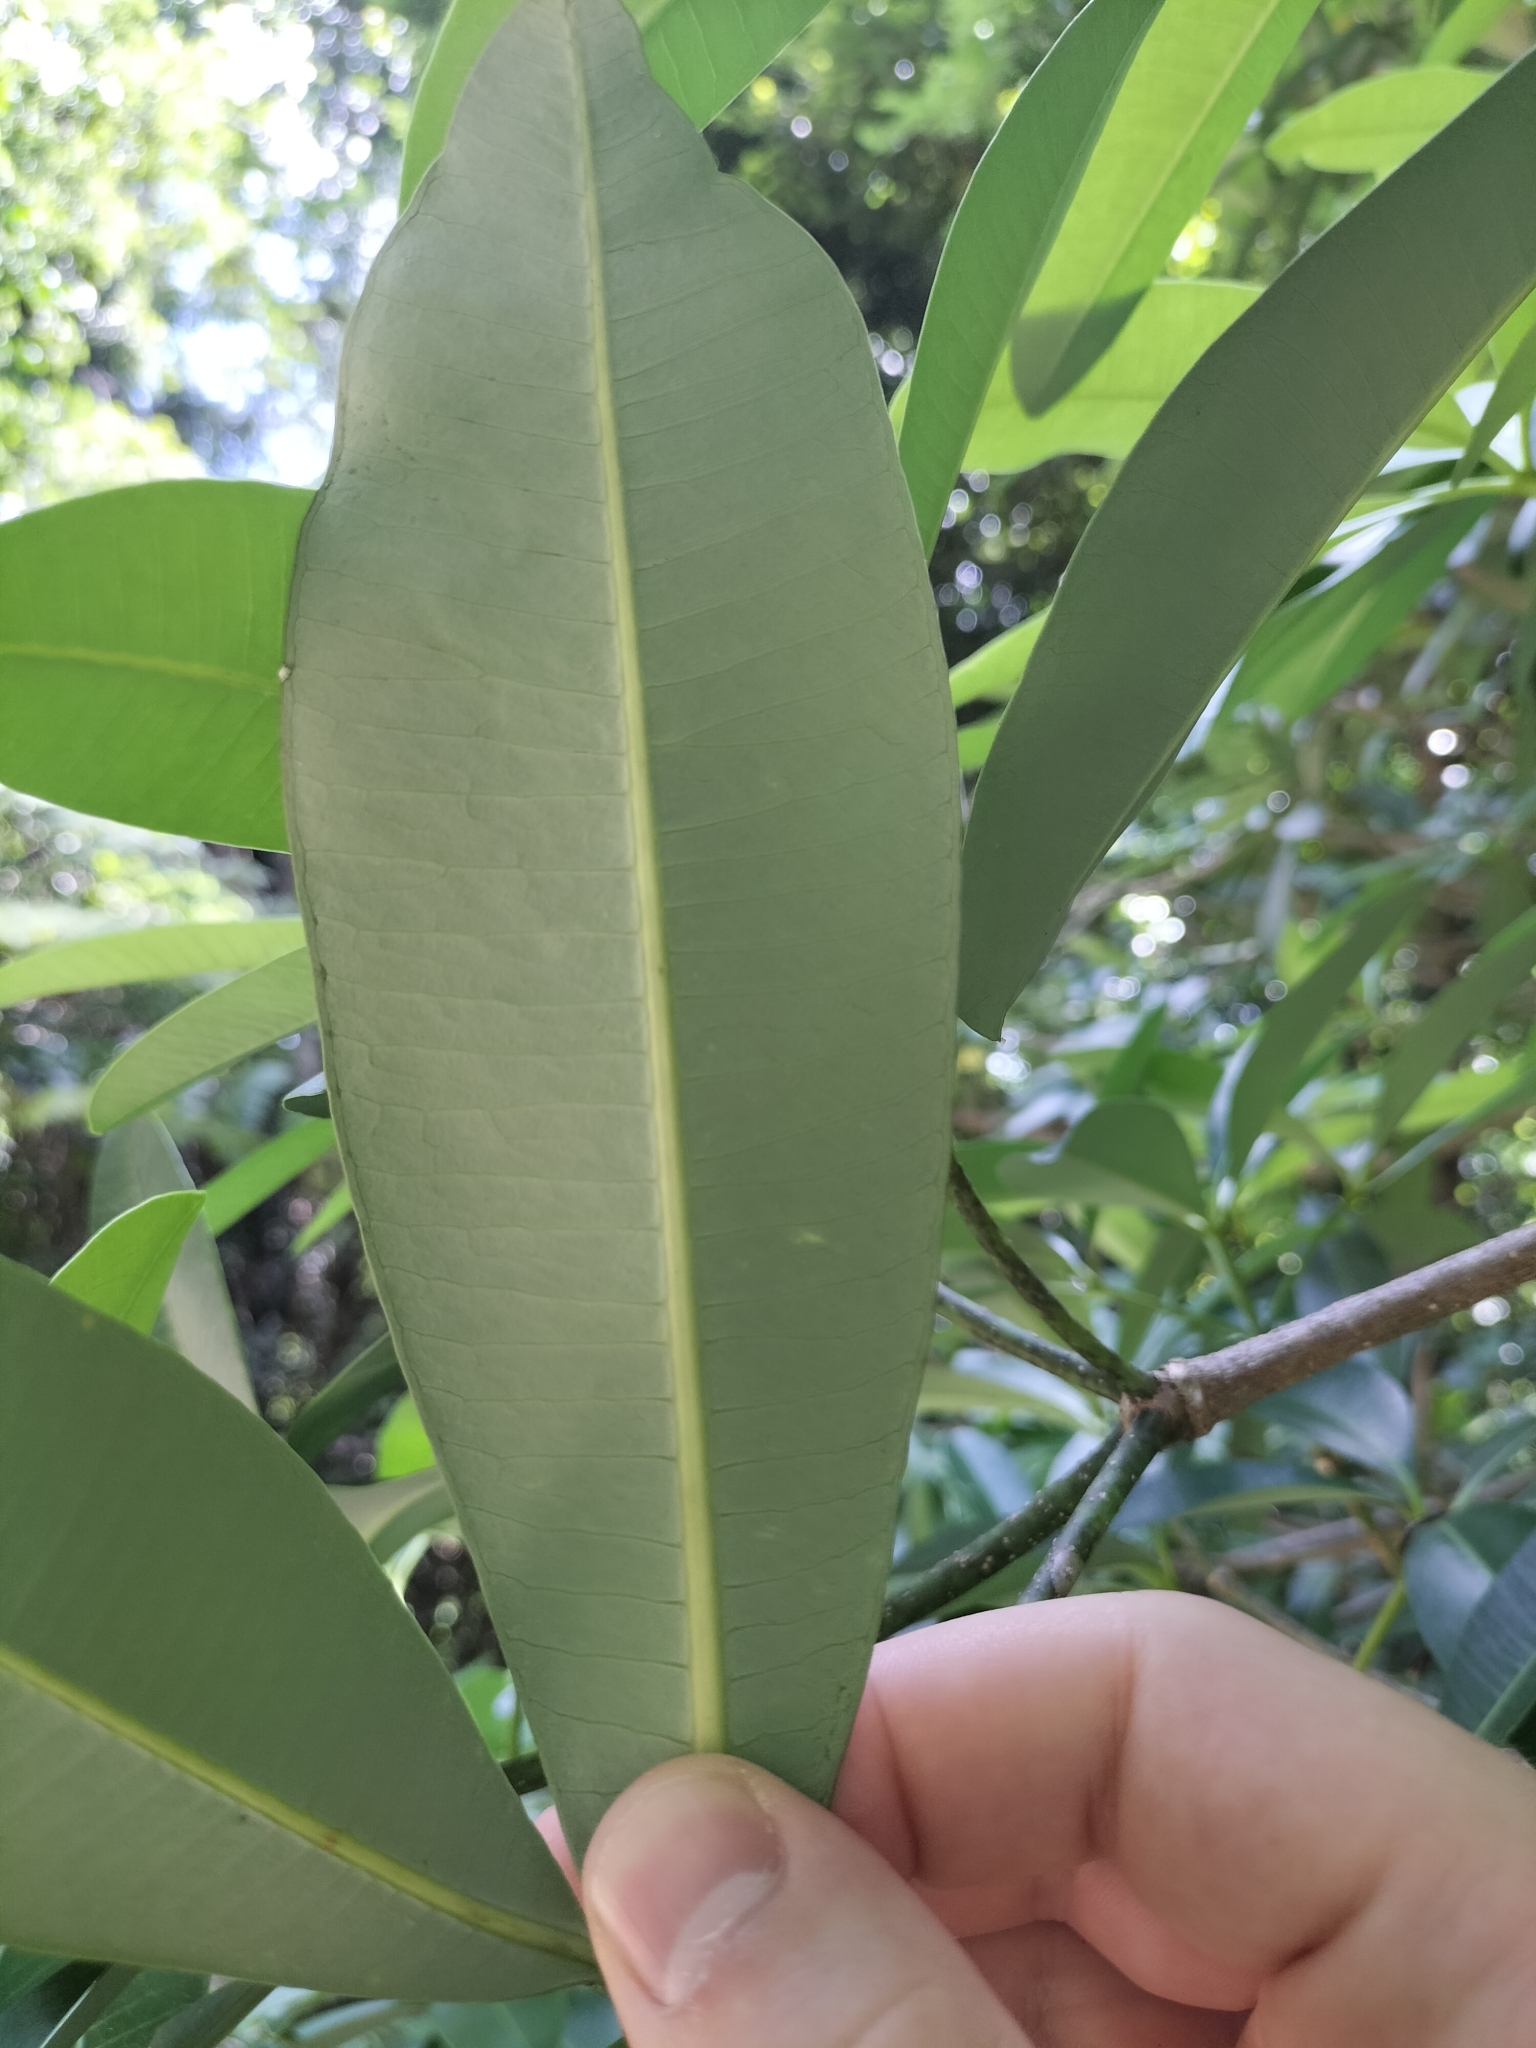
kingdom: Plantae
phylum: Tracheophyta
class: Magnoliopsida
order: Gentianales
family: Apocynaceae
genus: Alstonia
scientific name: Alstonia scholaris
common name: White cheesewood
